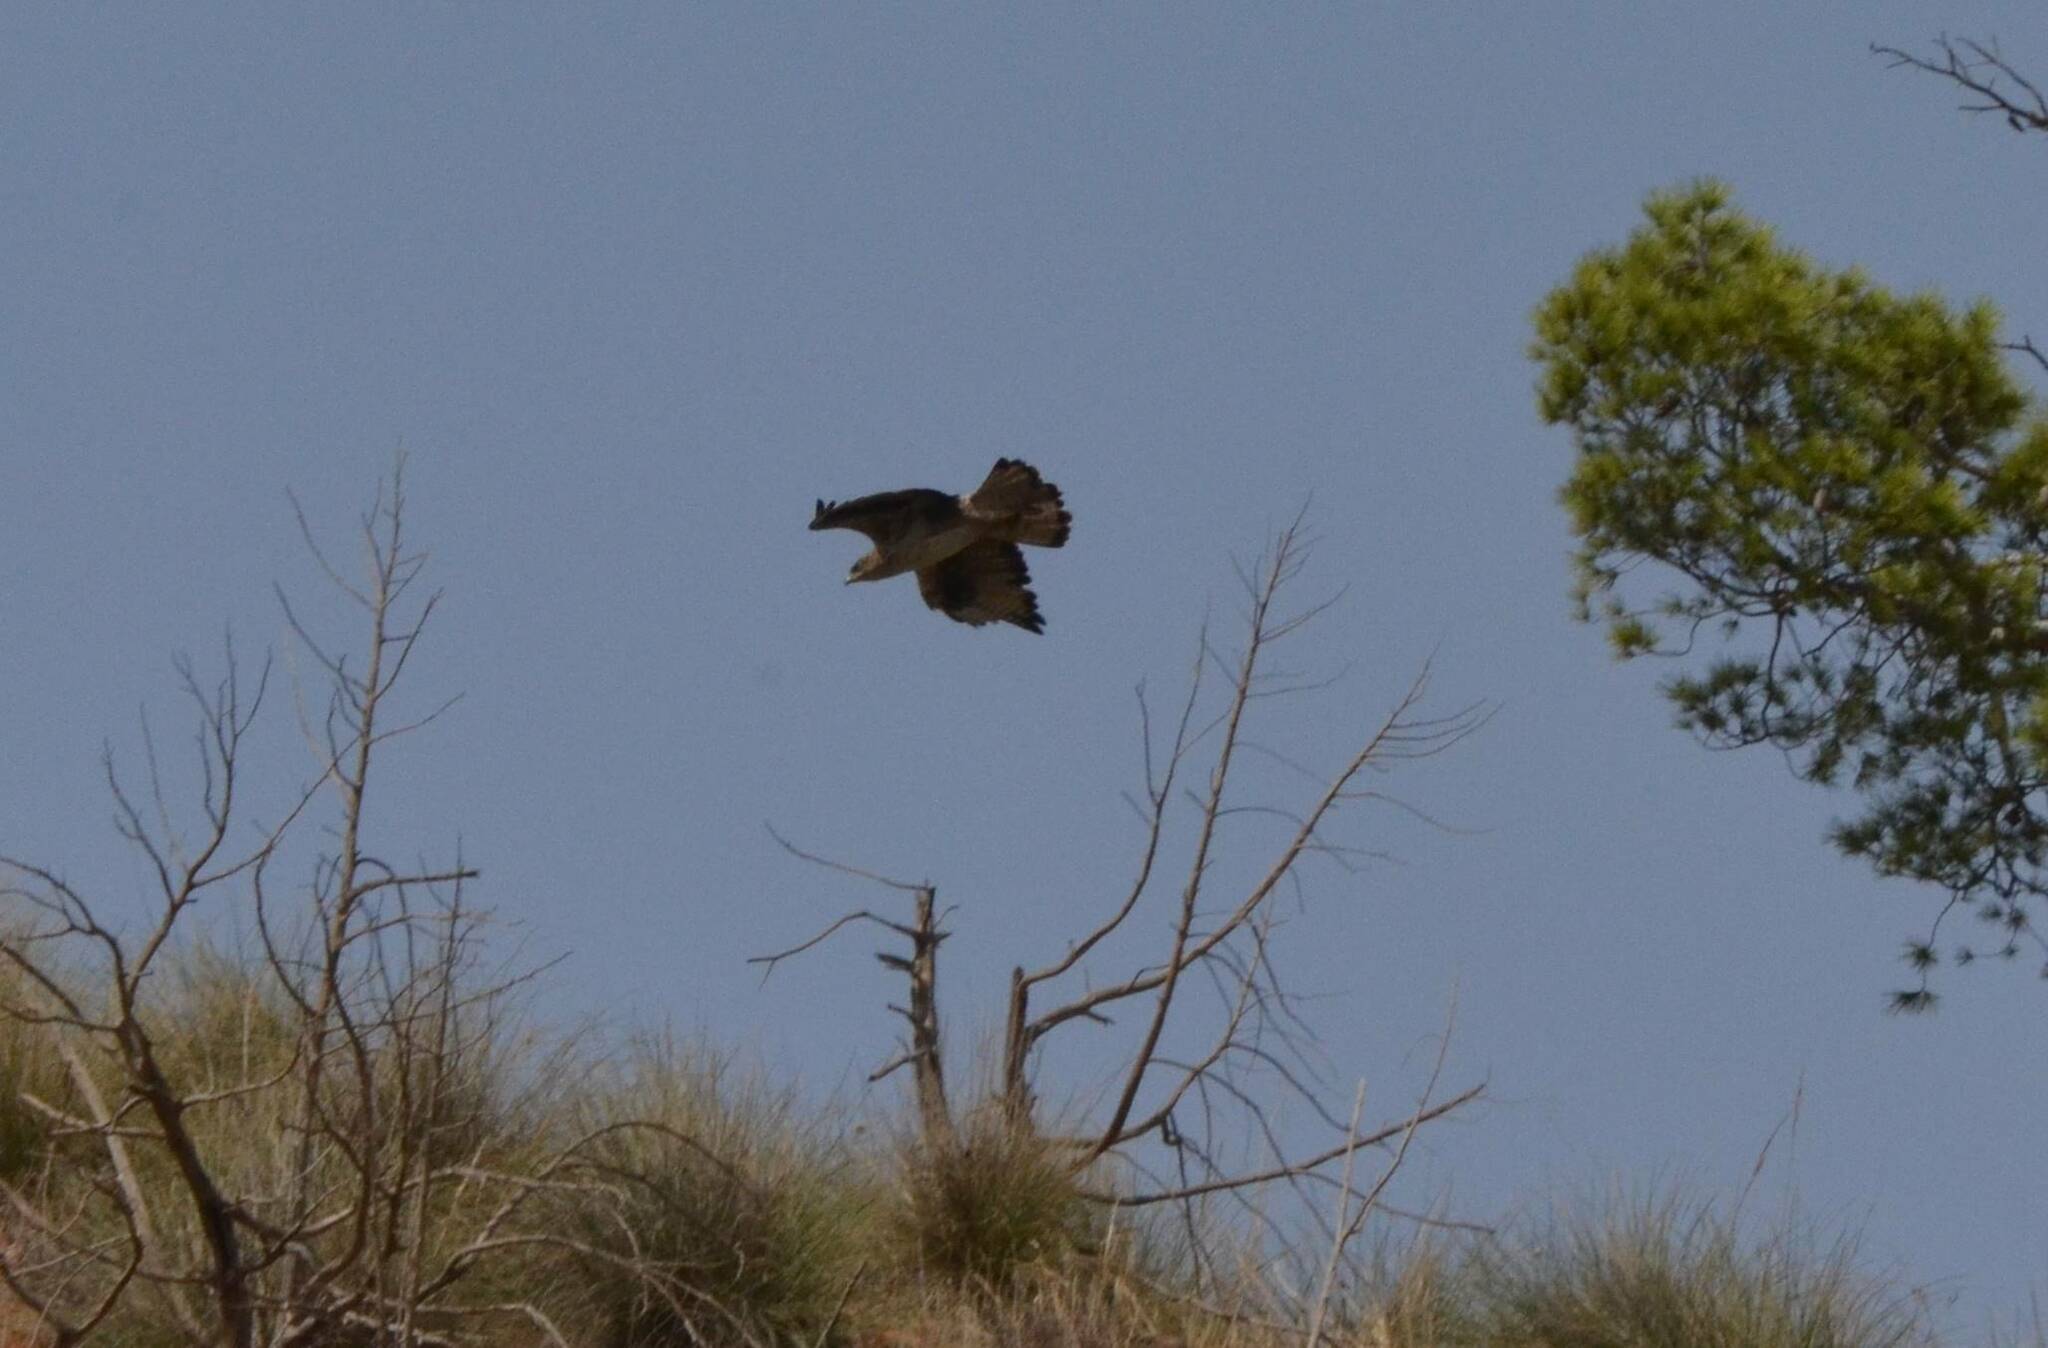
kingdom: Animalia
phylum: Chordata
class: Aves
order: Accipitriformes
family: Accipitridae
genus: Aquila
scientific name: Aquila fasciata
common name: Bonelli's eagle
